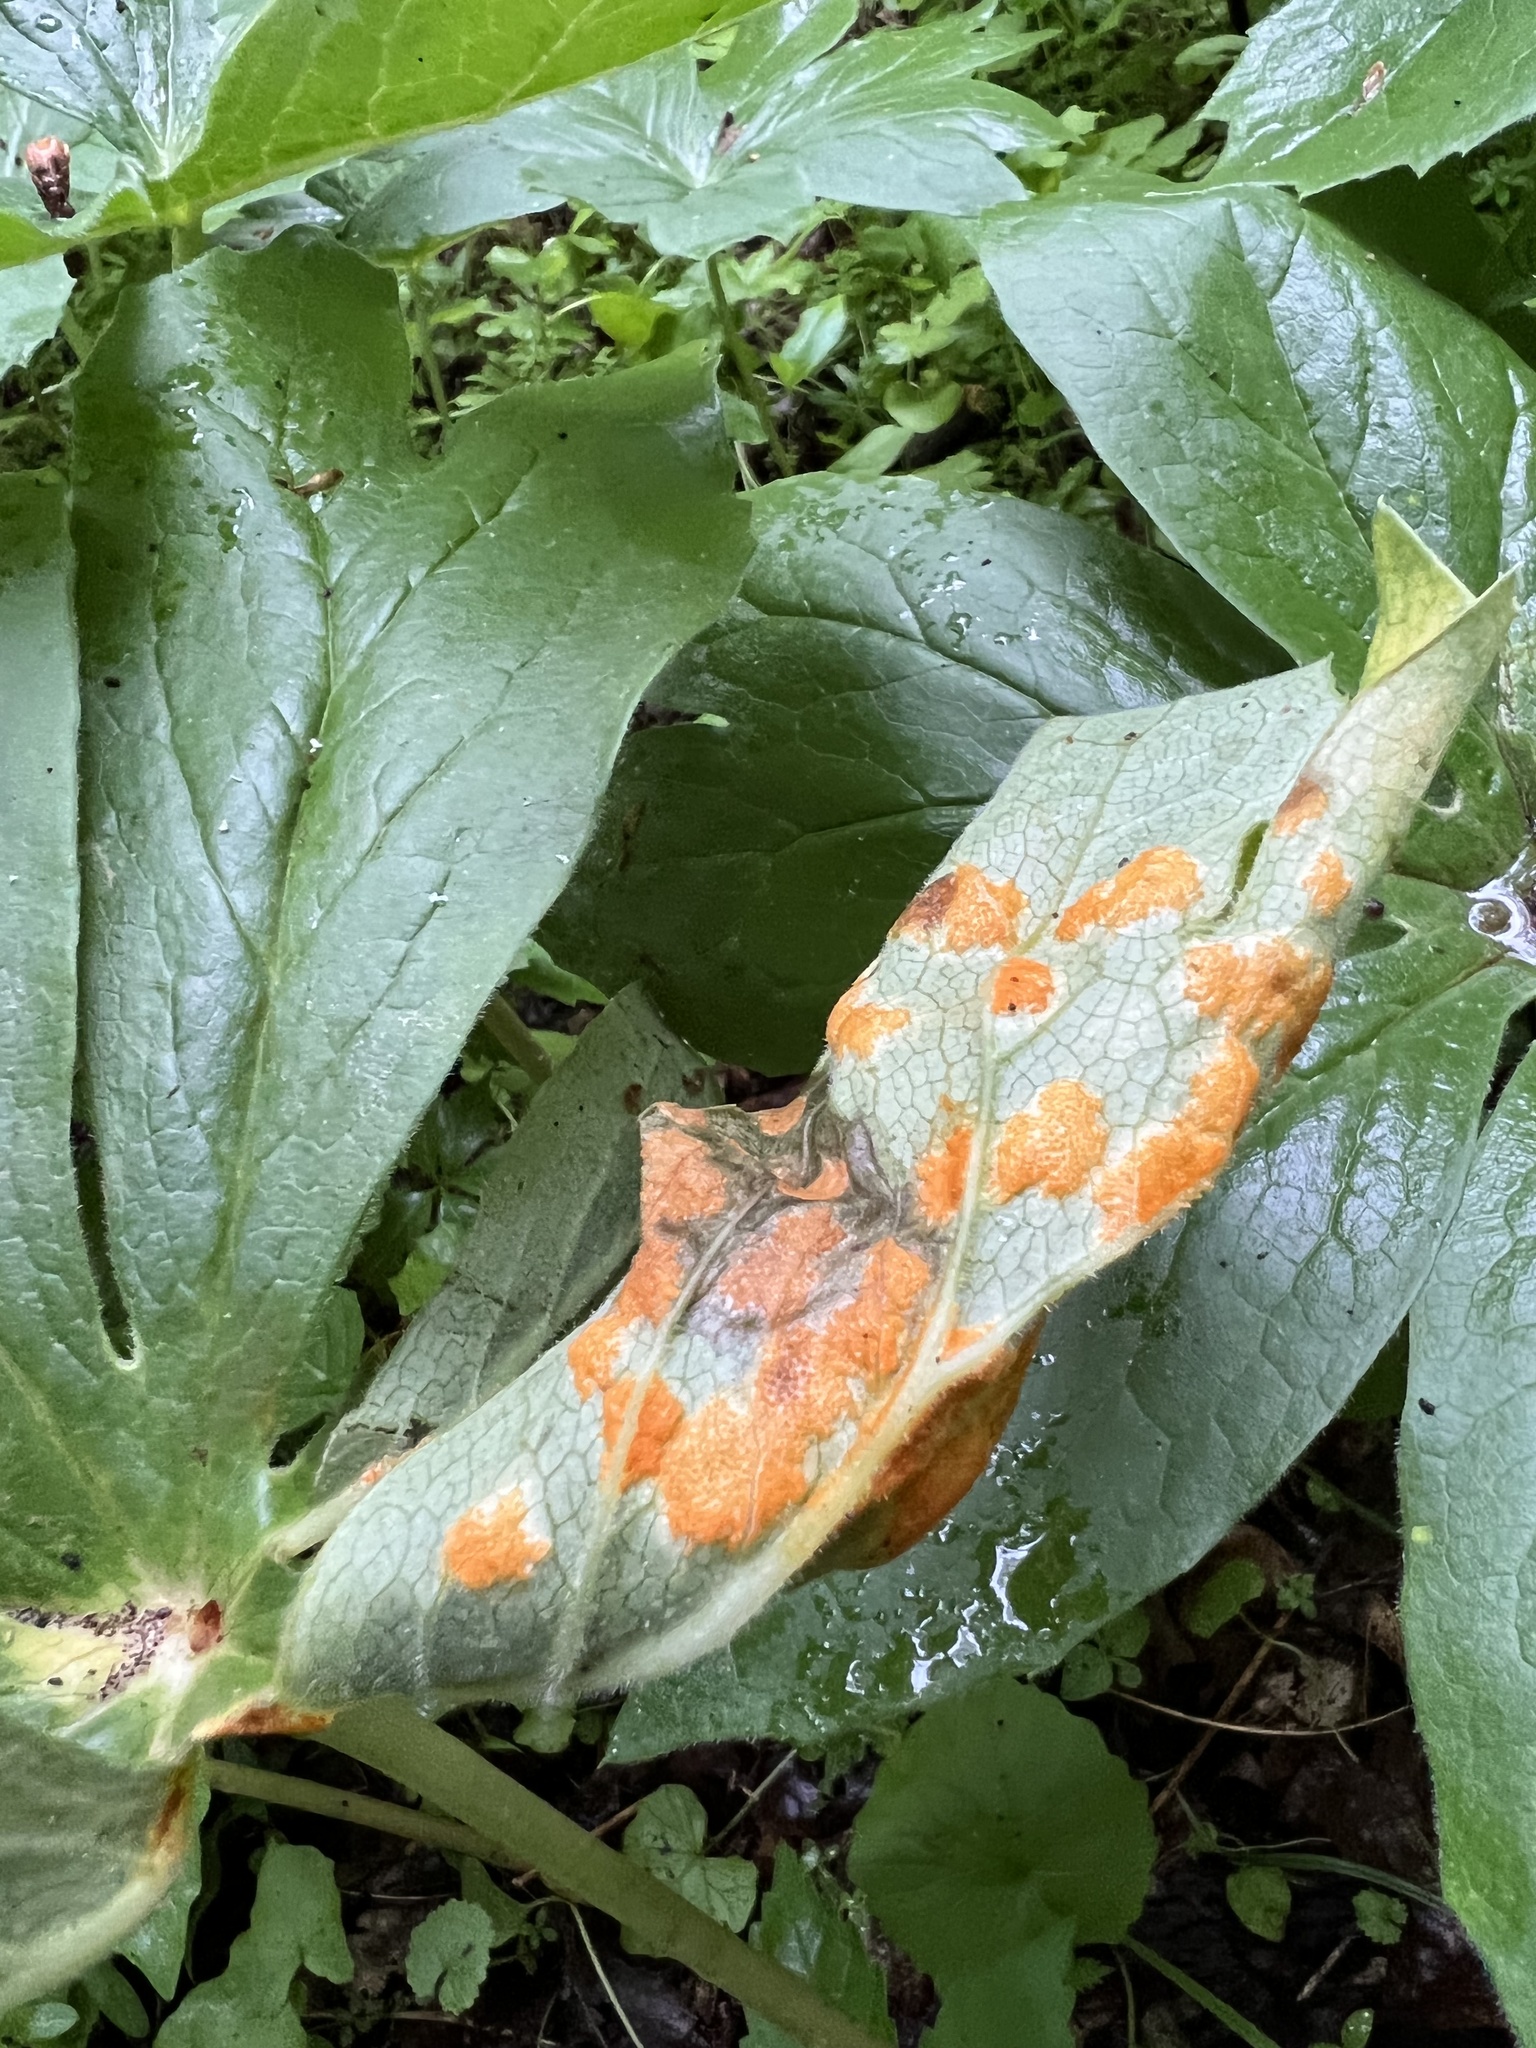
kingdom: Fungi
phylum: Basidiomycota
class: Pucciniomycetes
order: Pucciniales
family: Pucciniaceae
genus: Puccinia
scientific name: Puccinia podophylli
